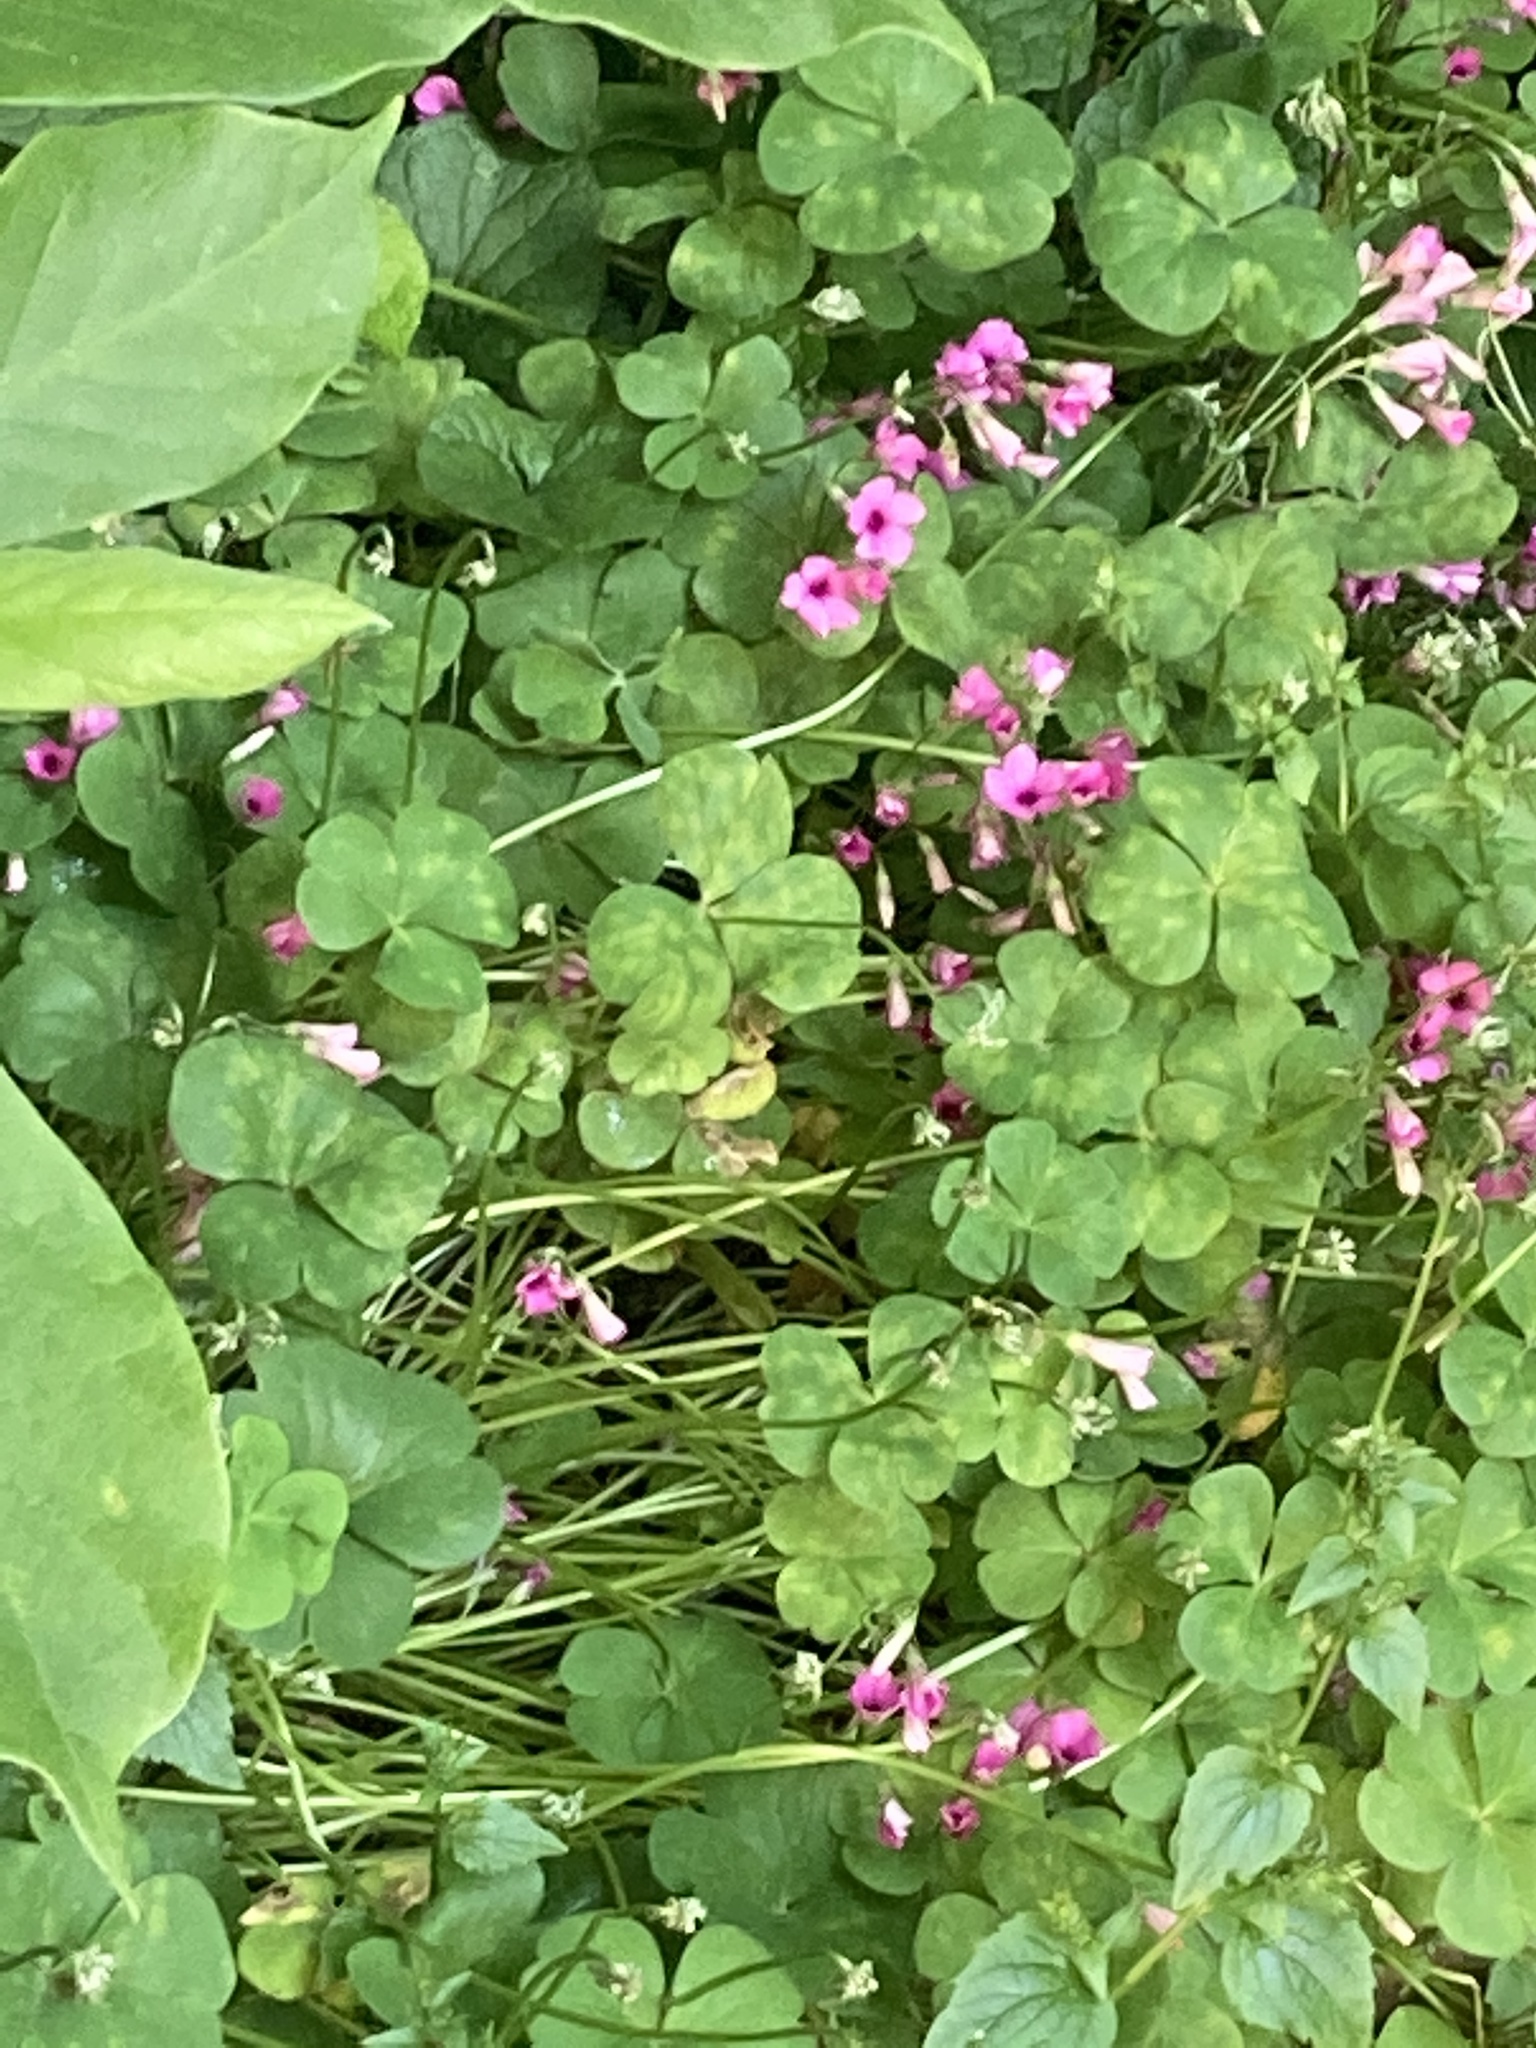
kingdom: Plantae
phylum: Tracheophyta
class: Magnoliopsida
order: Oxalidales
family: Oxalidaceae
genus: Oxalis
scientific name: Oxalis articulata
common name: Pink-sorrel
